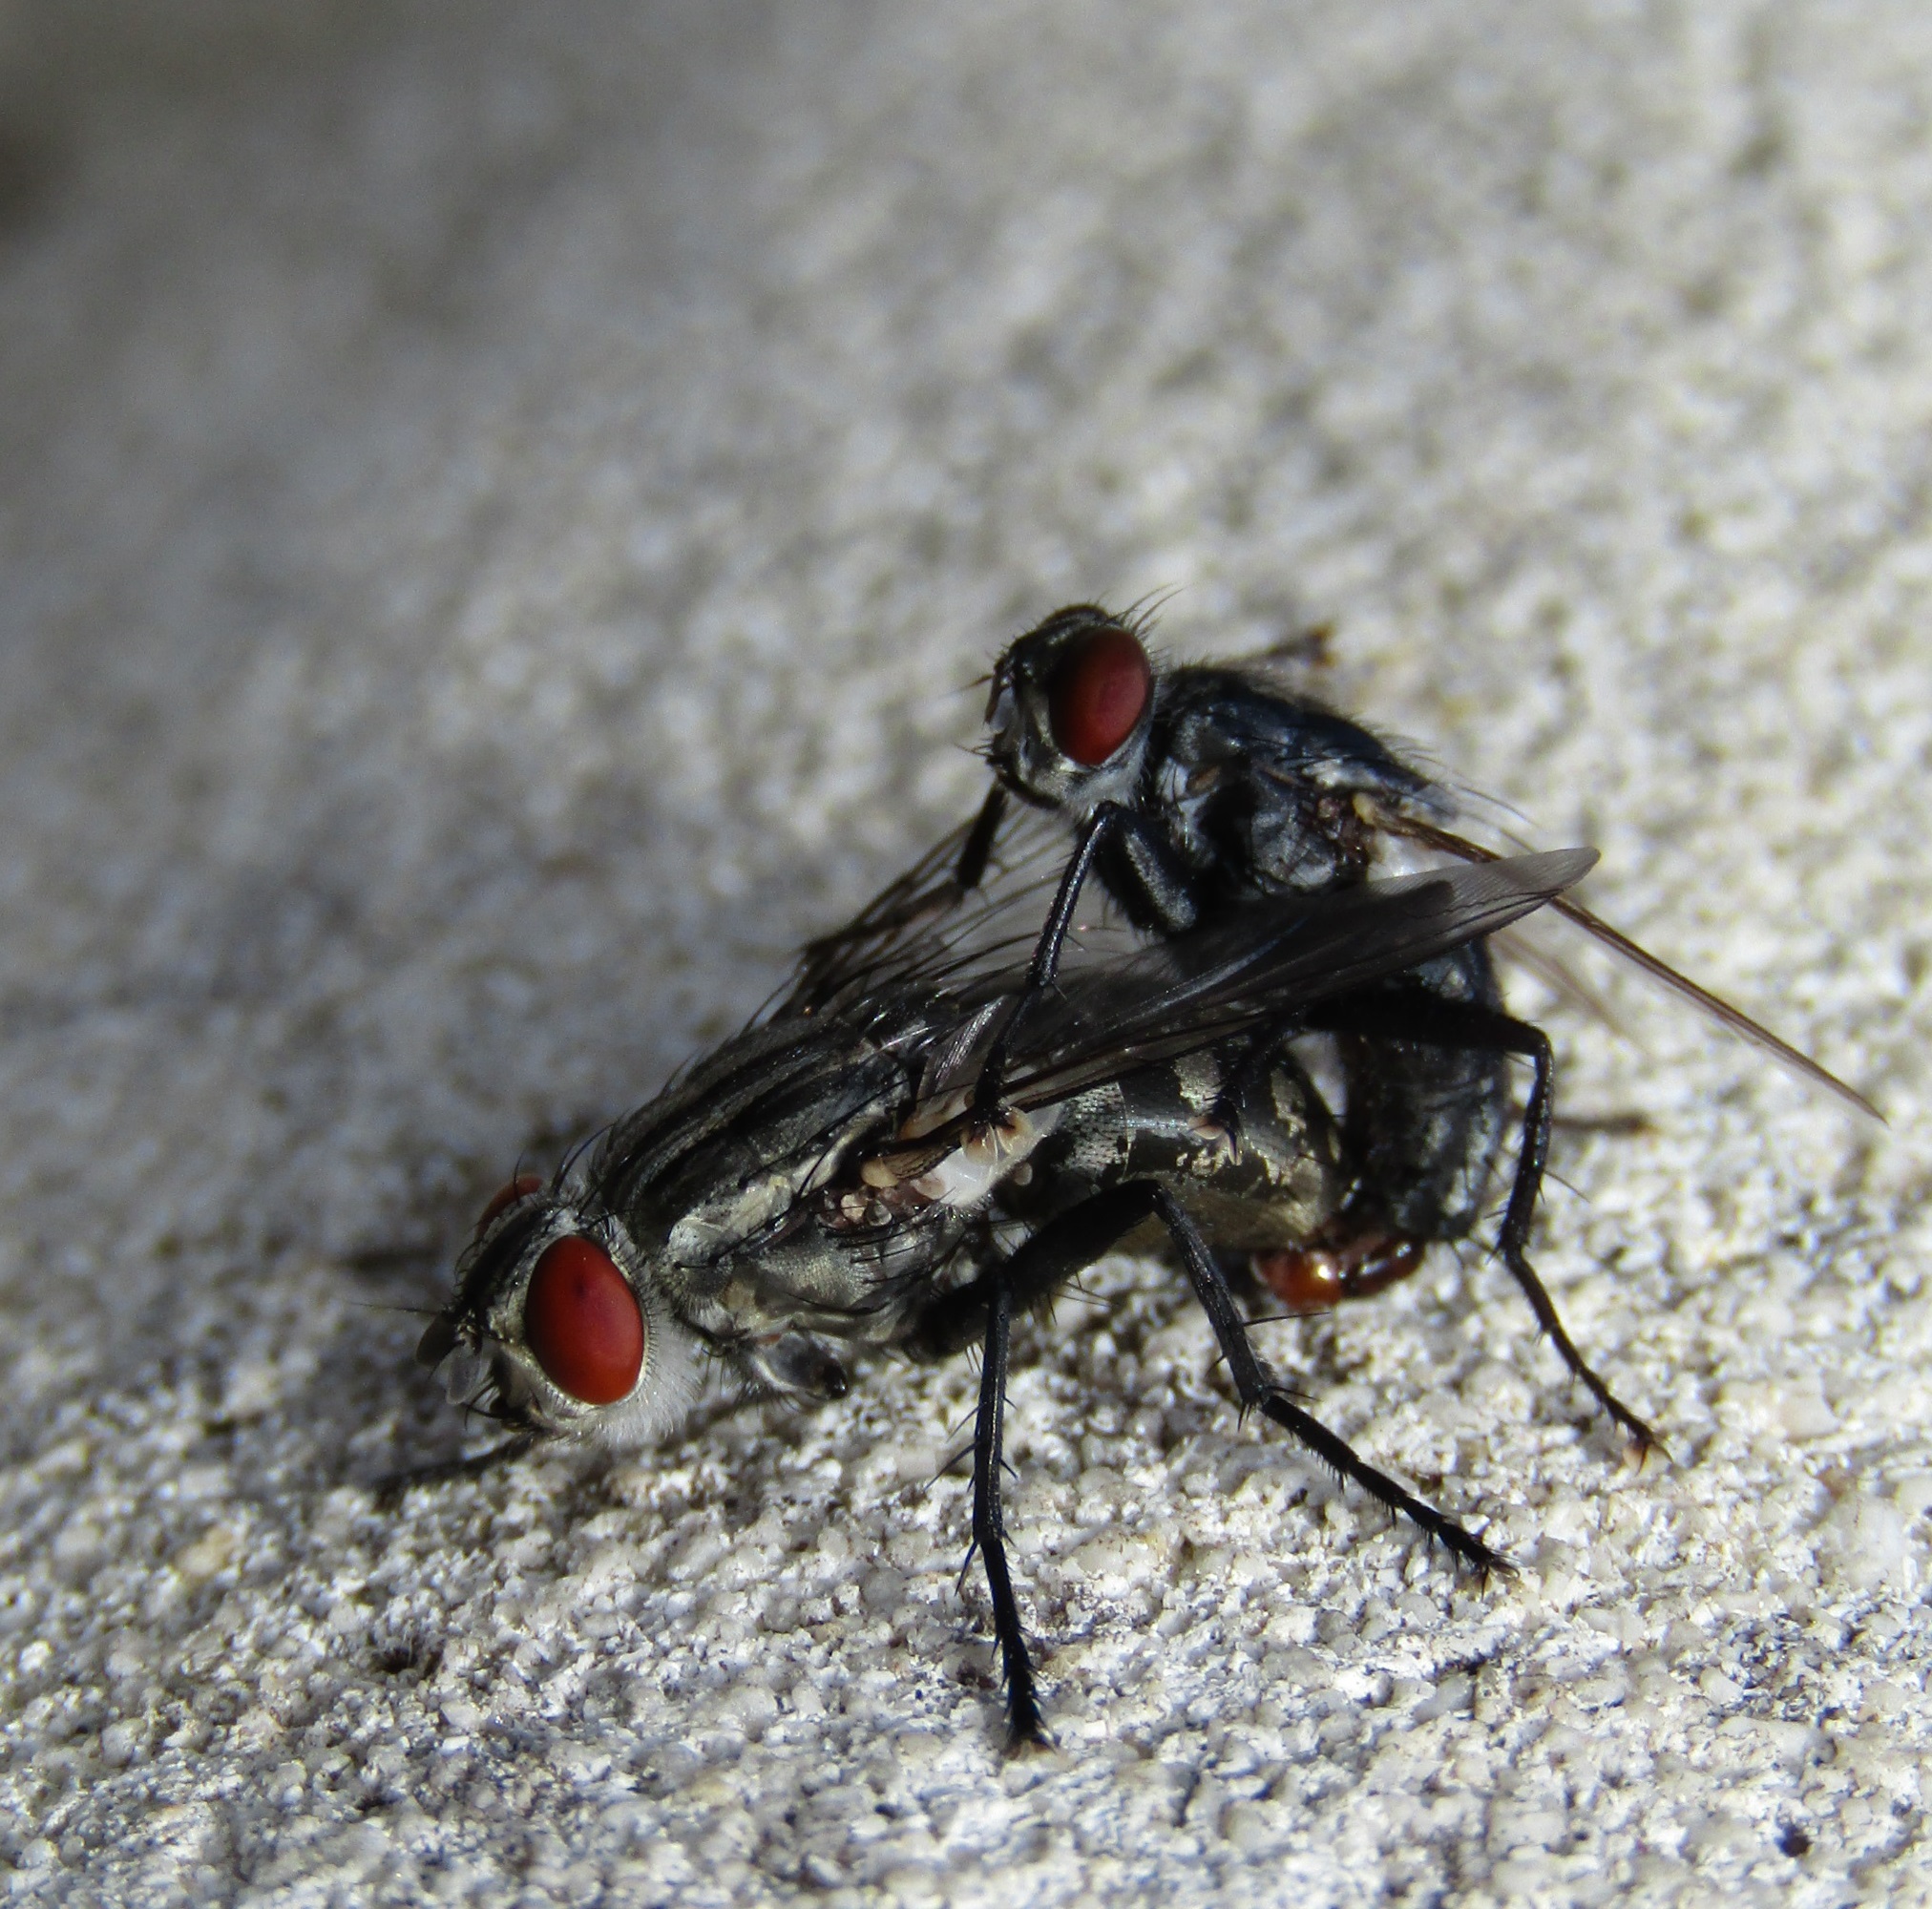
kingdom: Animalia
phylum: Arthropoda
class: Insecta
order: Diptera
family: Sarcophagidae
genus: Sarcophaga
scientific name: Sarcophaga crassipalpis
